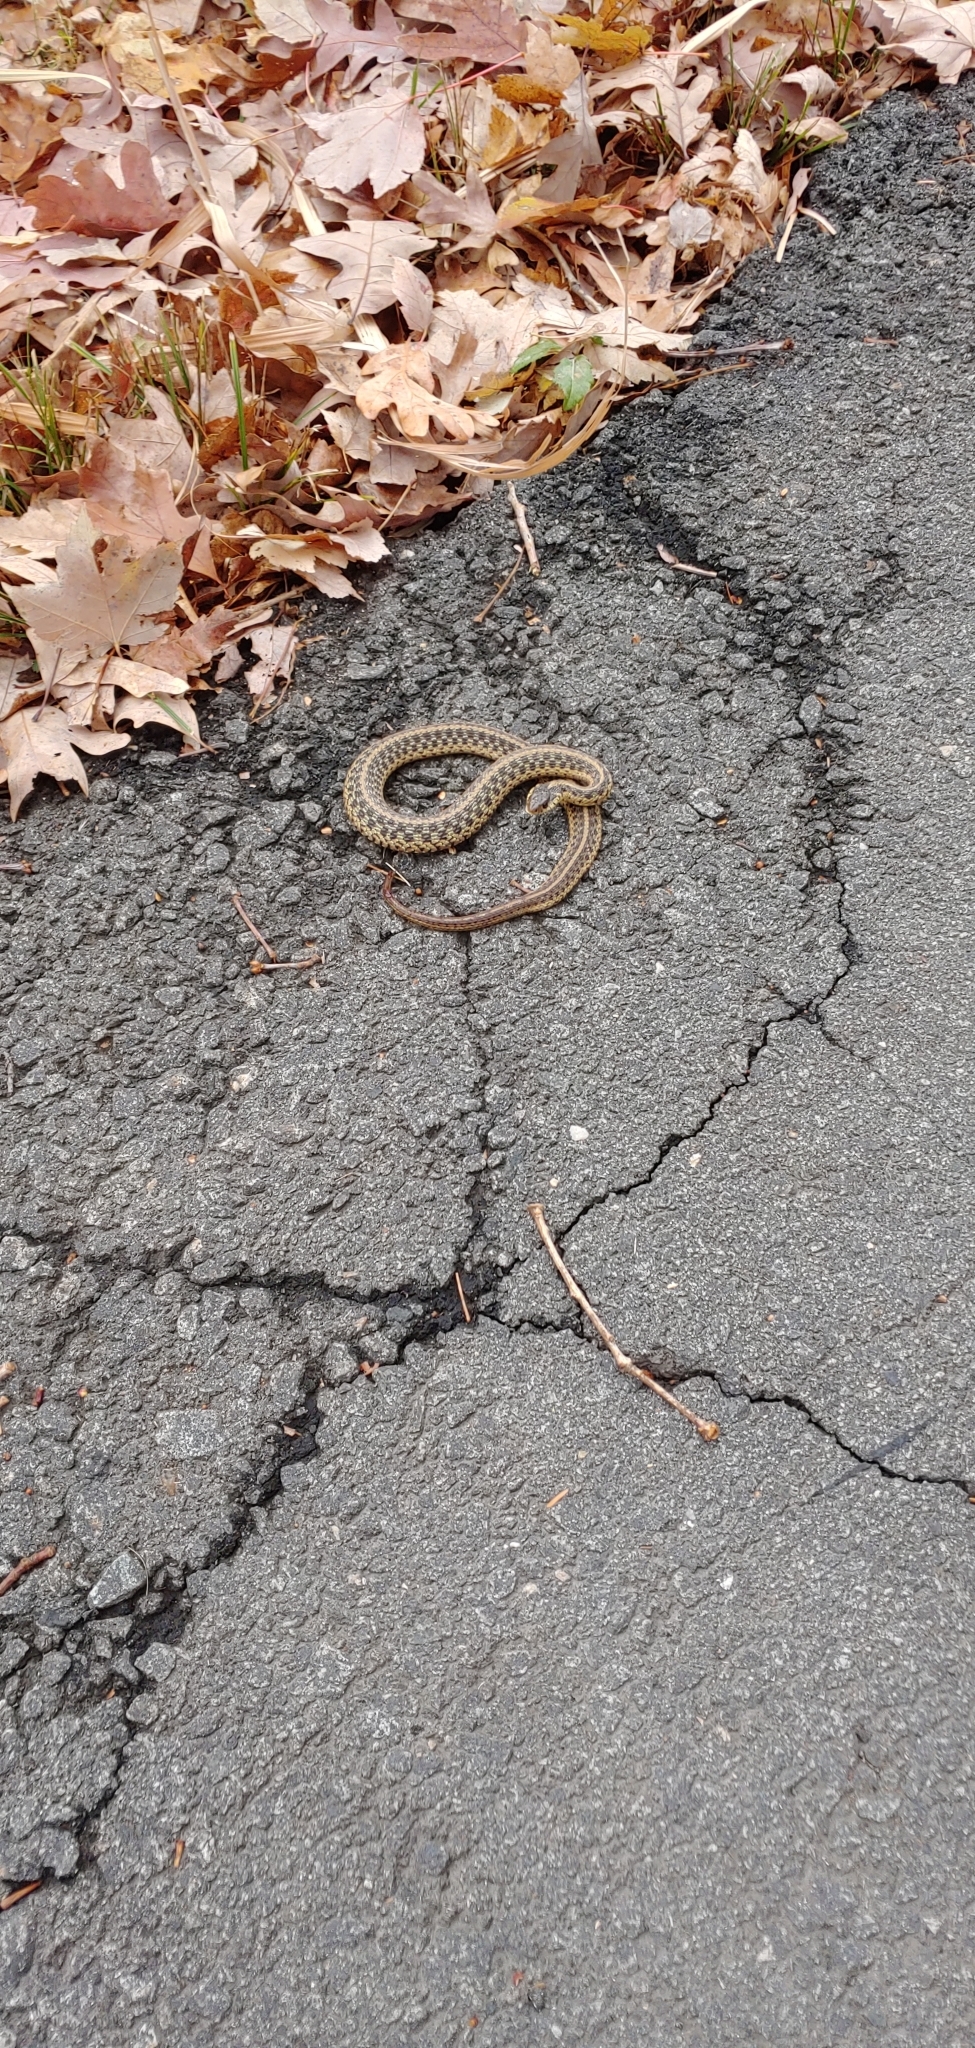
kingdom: Animalia
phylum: Chordata
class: Squamata
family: Colubridae
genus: Thamnophis
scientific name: Thamnophis sirtalis
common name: Common garter snake
